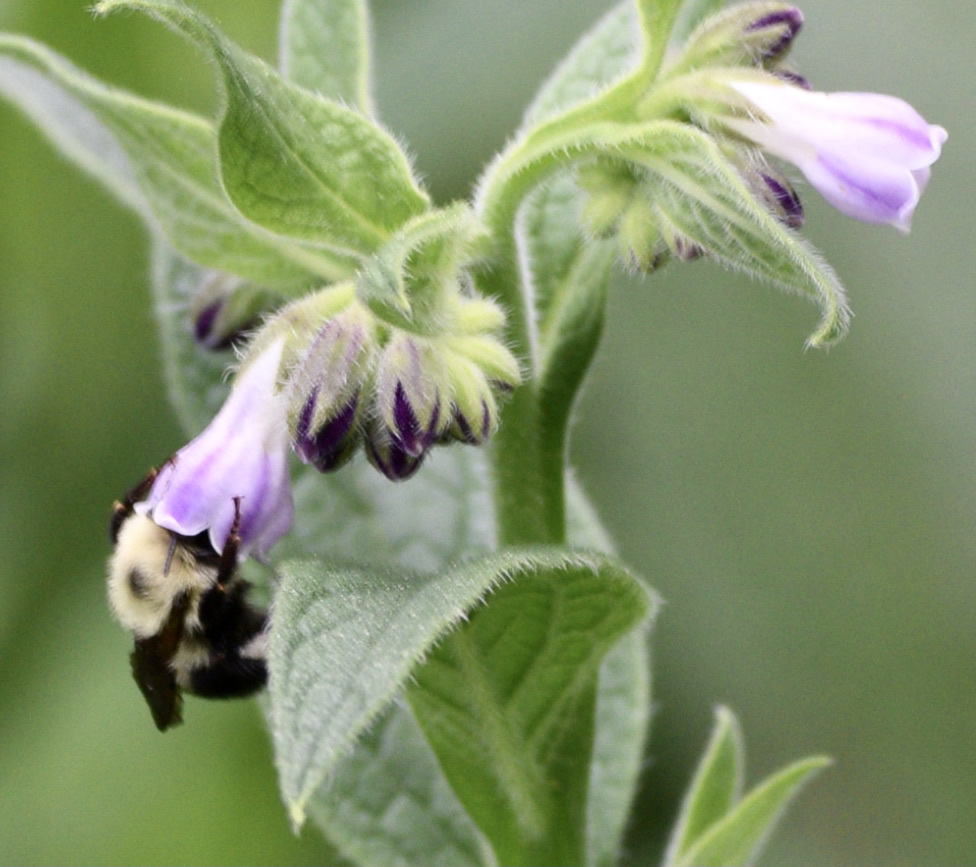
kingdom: Animalia
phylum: Arthropoda
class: Insecta
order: Hymenoptera
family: Apidae
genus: Bombus
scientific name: Bombus bimaculatus
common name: Two-spotted bumble bee
